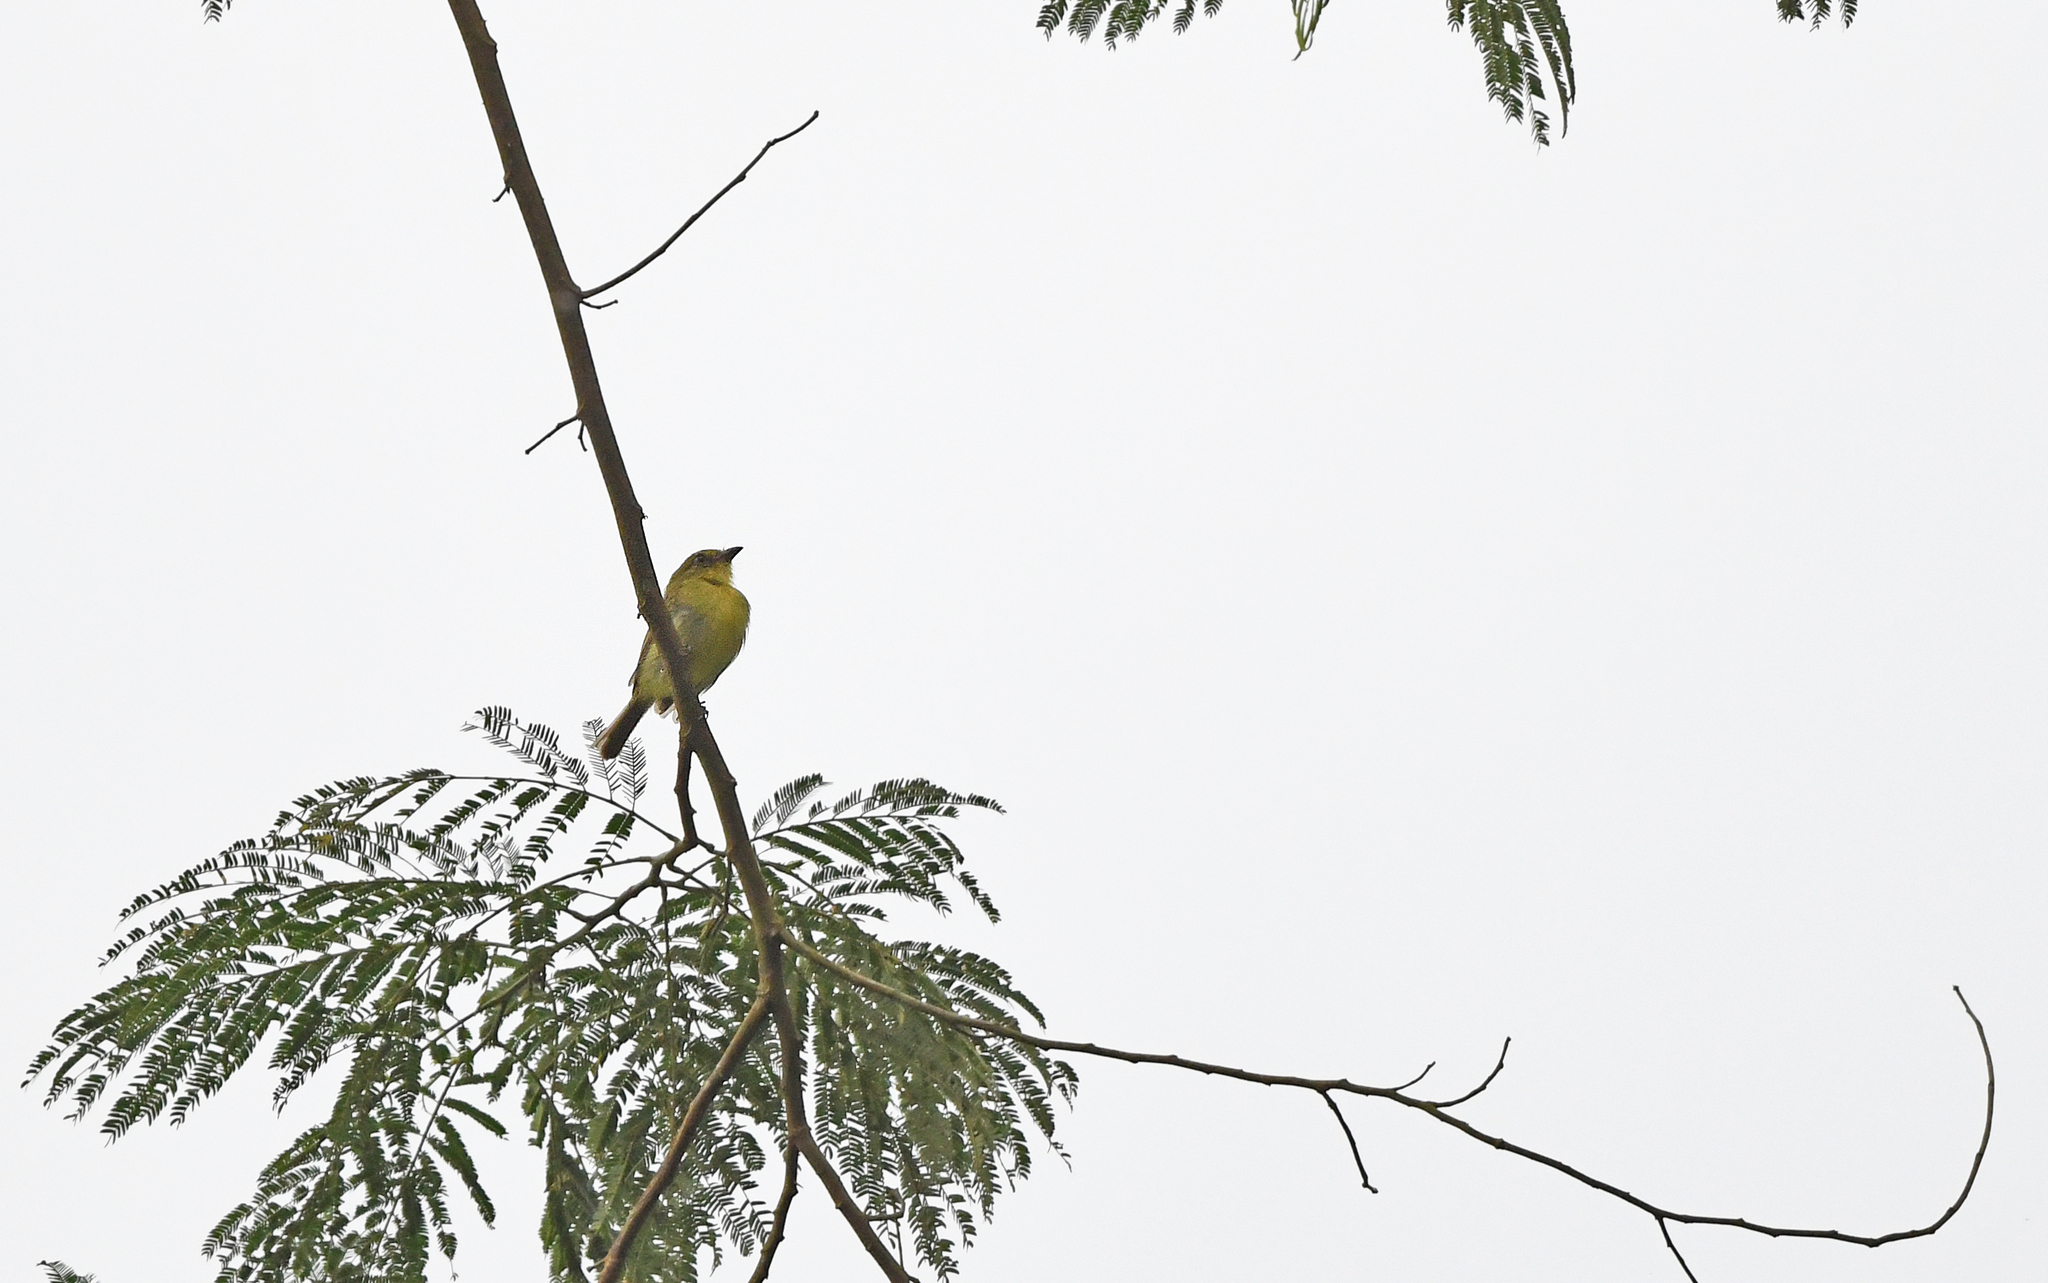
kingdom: Animalia
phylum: Chordata
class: Aves
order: Passeriformes
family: Tyrannidae
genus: Tolmomyias
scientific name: Tolmomyias flaviventris
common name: Ochre-lored flatbill
